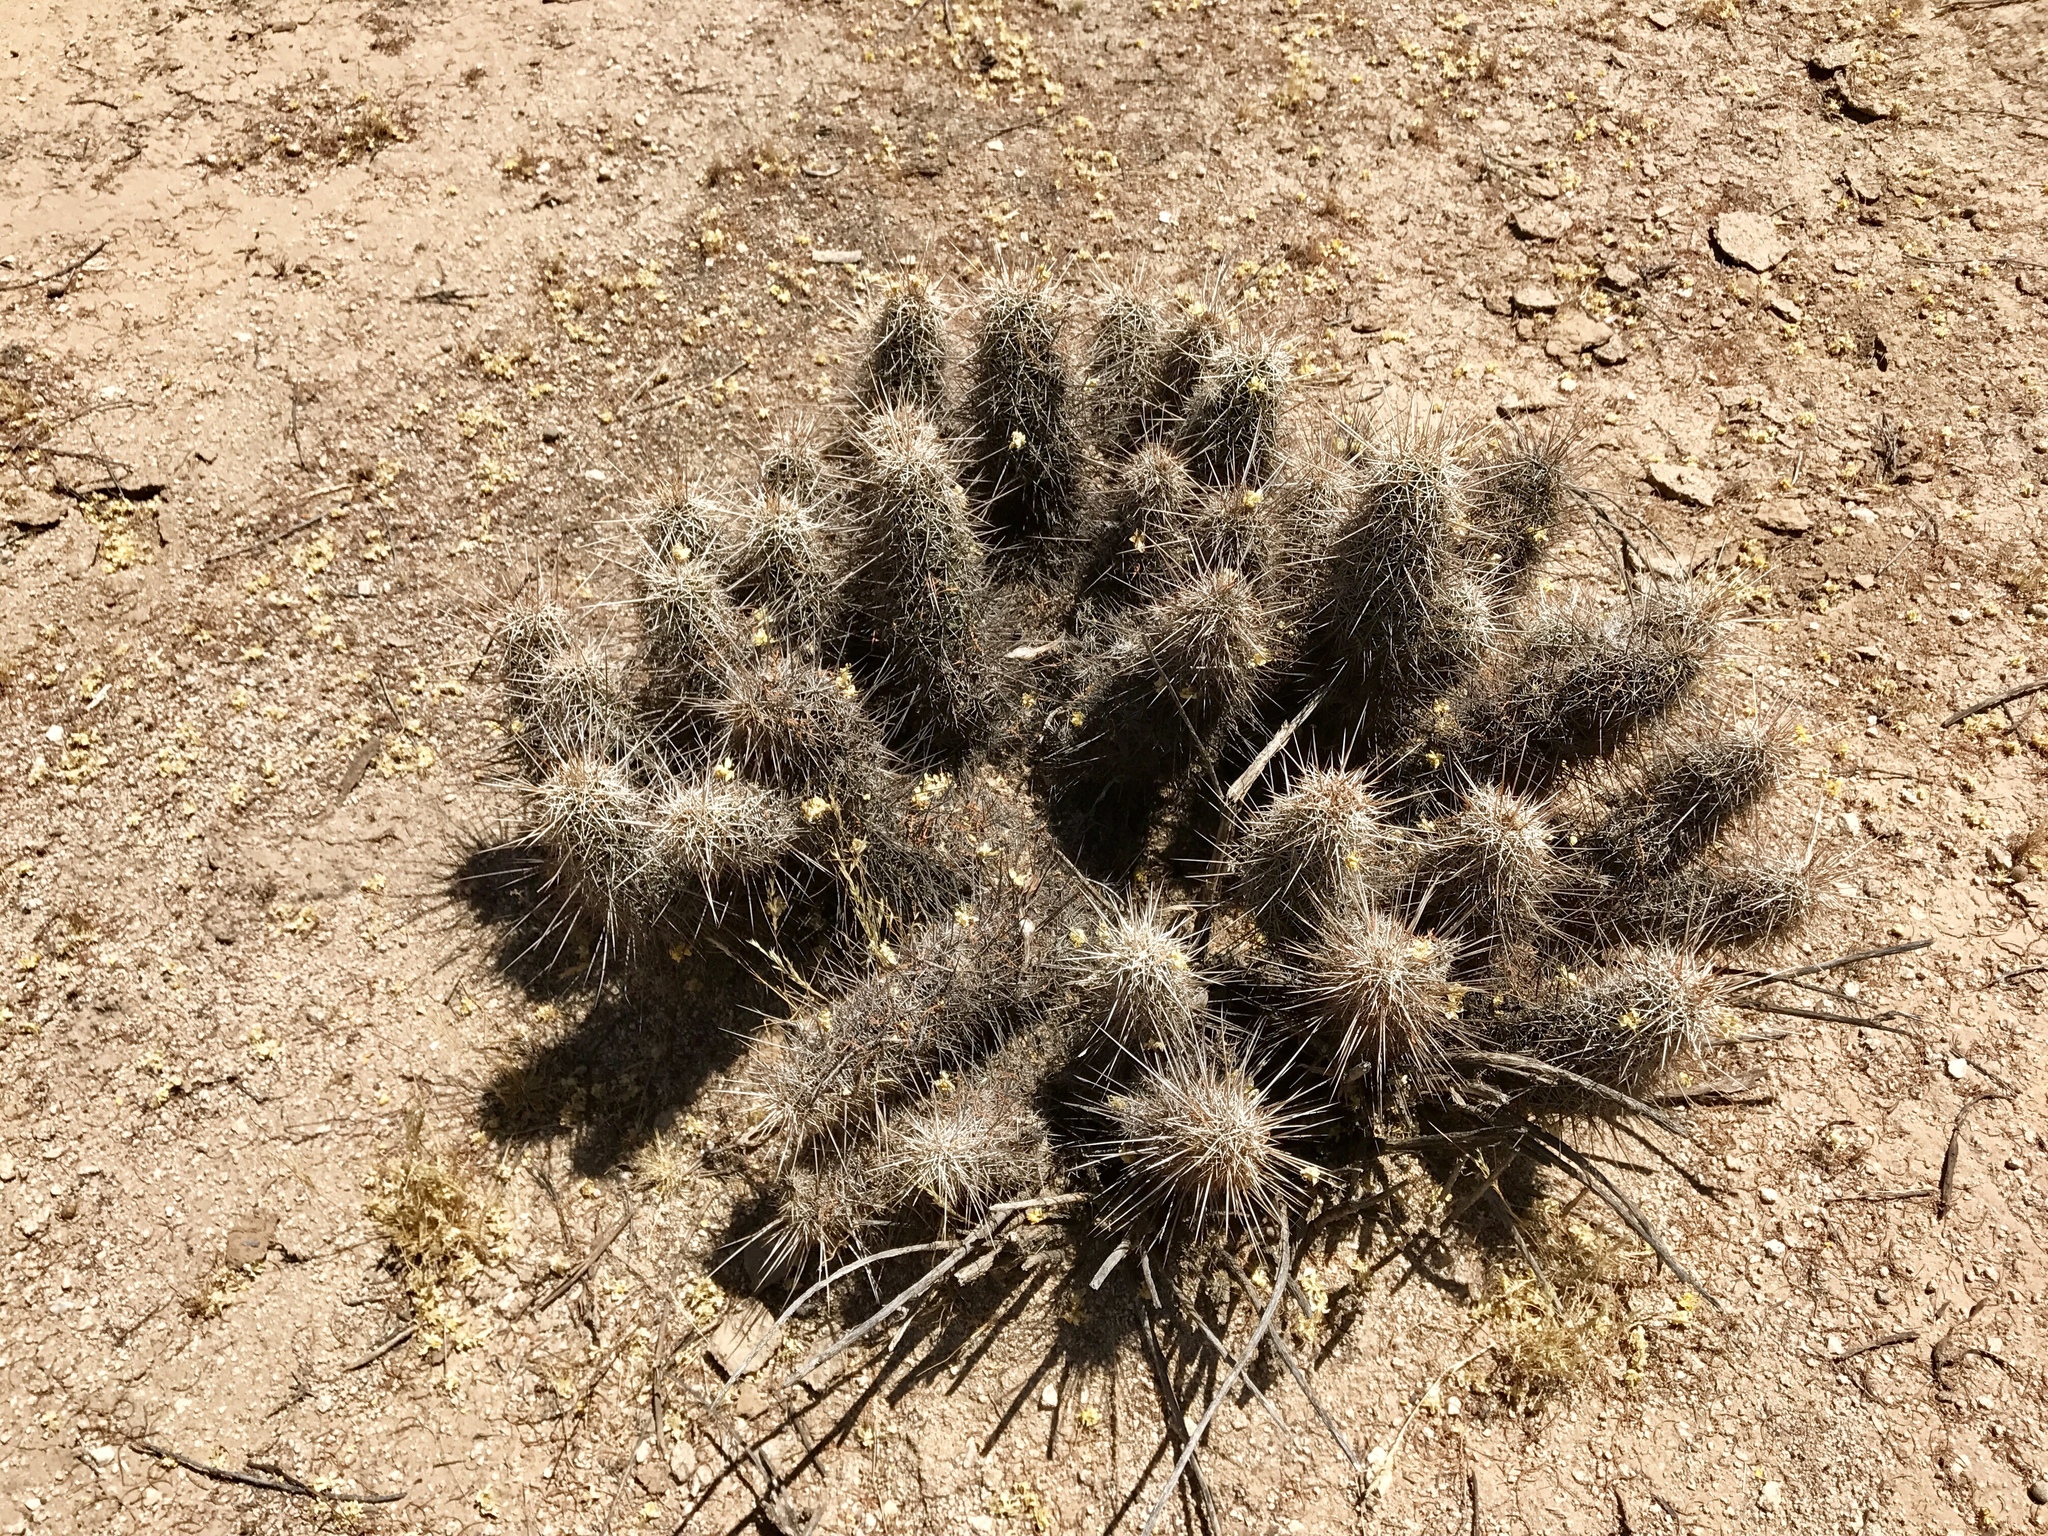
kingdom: Plantae
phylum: Tracheophyta
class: Magnoliopsida
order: Caryophyllales
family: Cactaceae
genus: Echinocereus
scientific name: Echinocereus fasciculatus
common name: Bundle hedgehog
